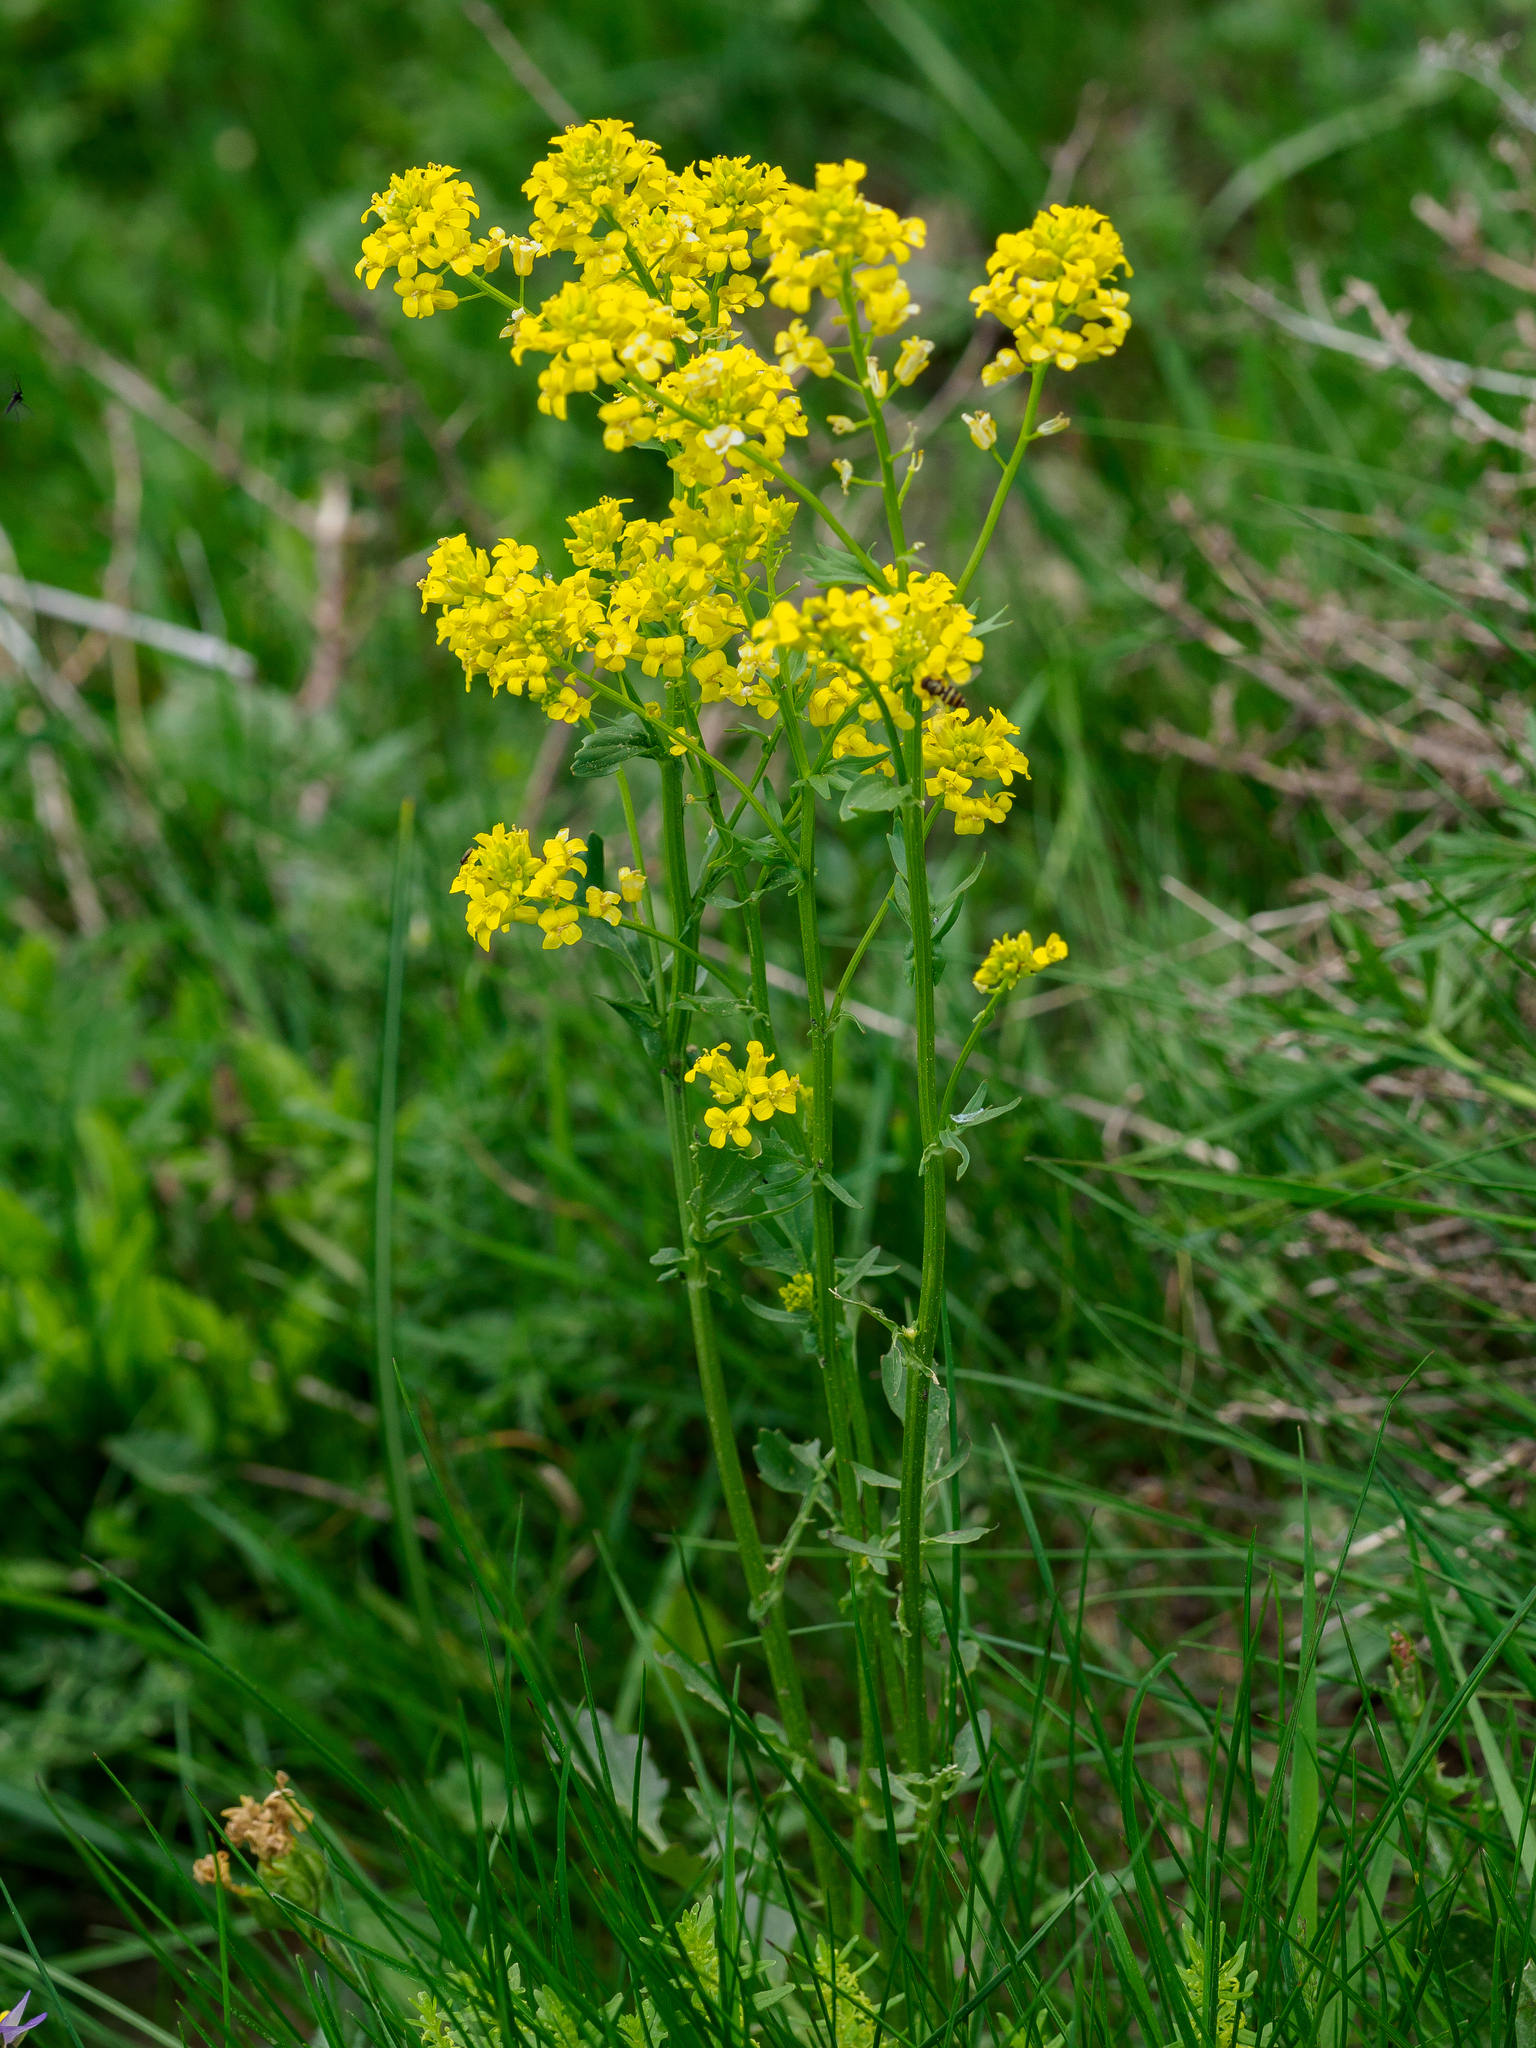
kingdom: Plantae
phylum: Tracheophyta
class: Magnoliopsida
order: Brassicales
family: Brassicaceae
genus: Barbarea
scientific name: Barbarea vulgaris
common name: Cressy-greens
